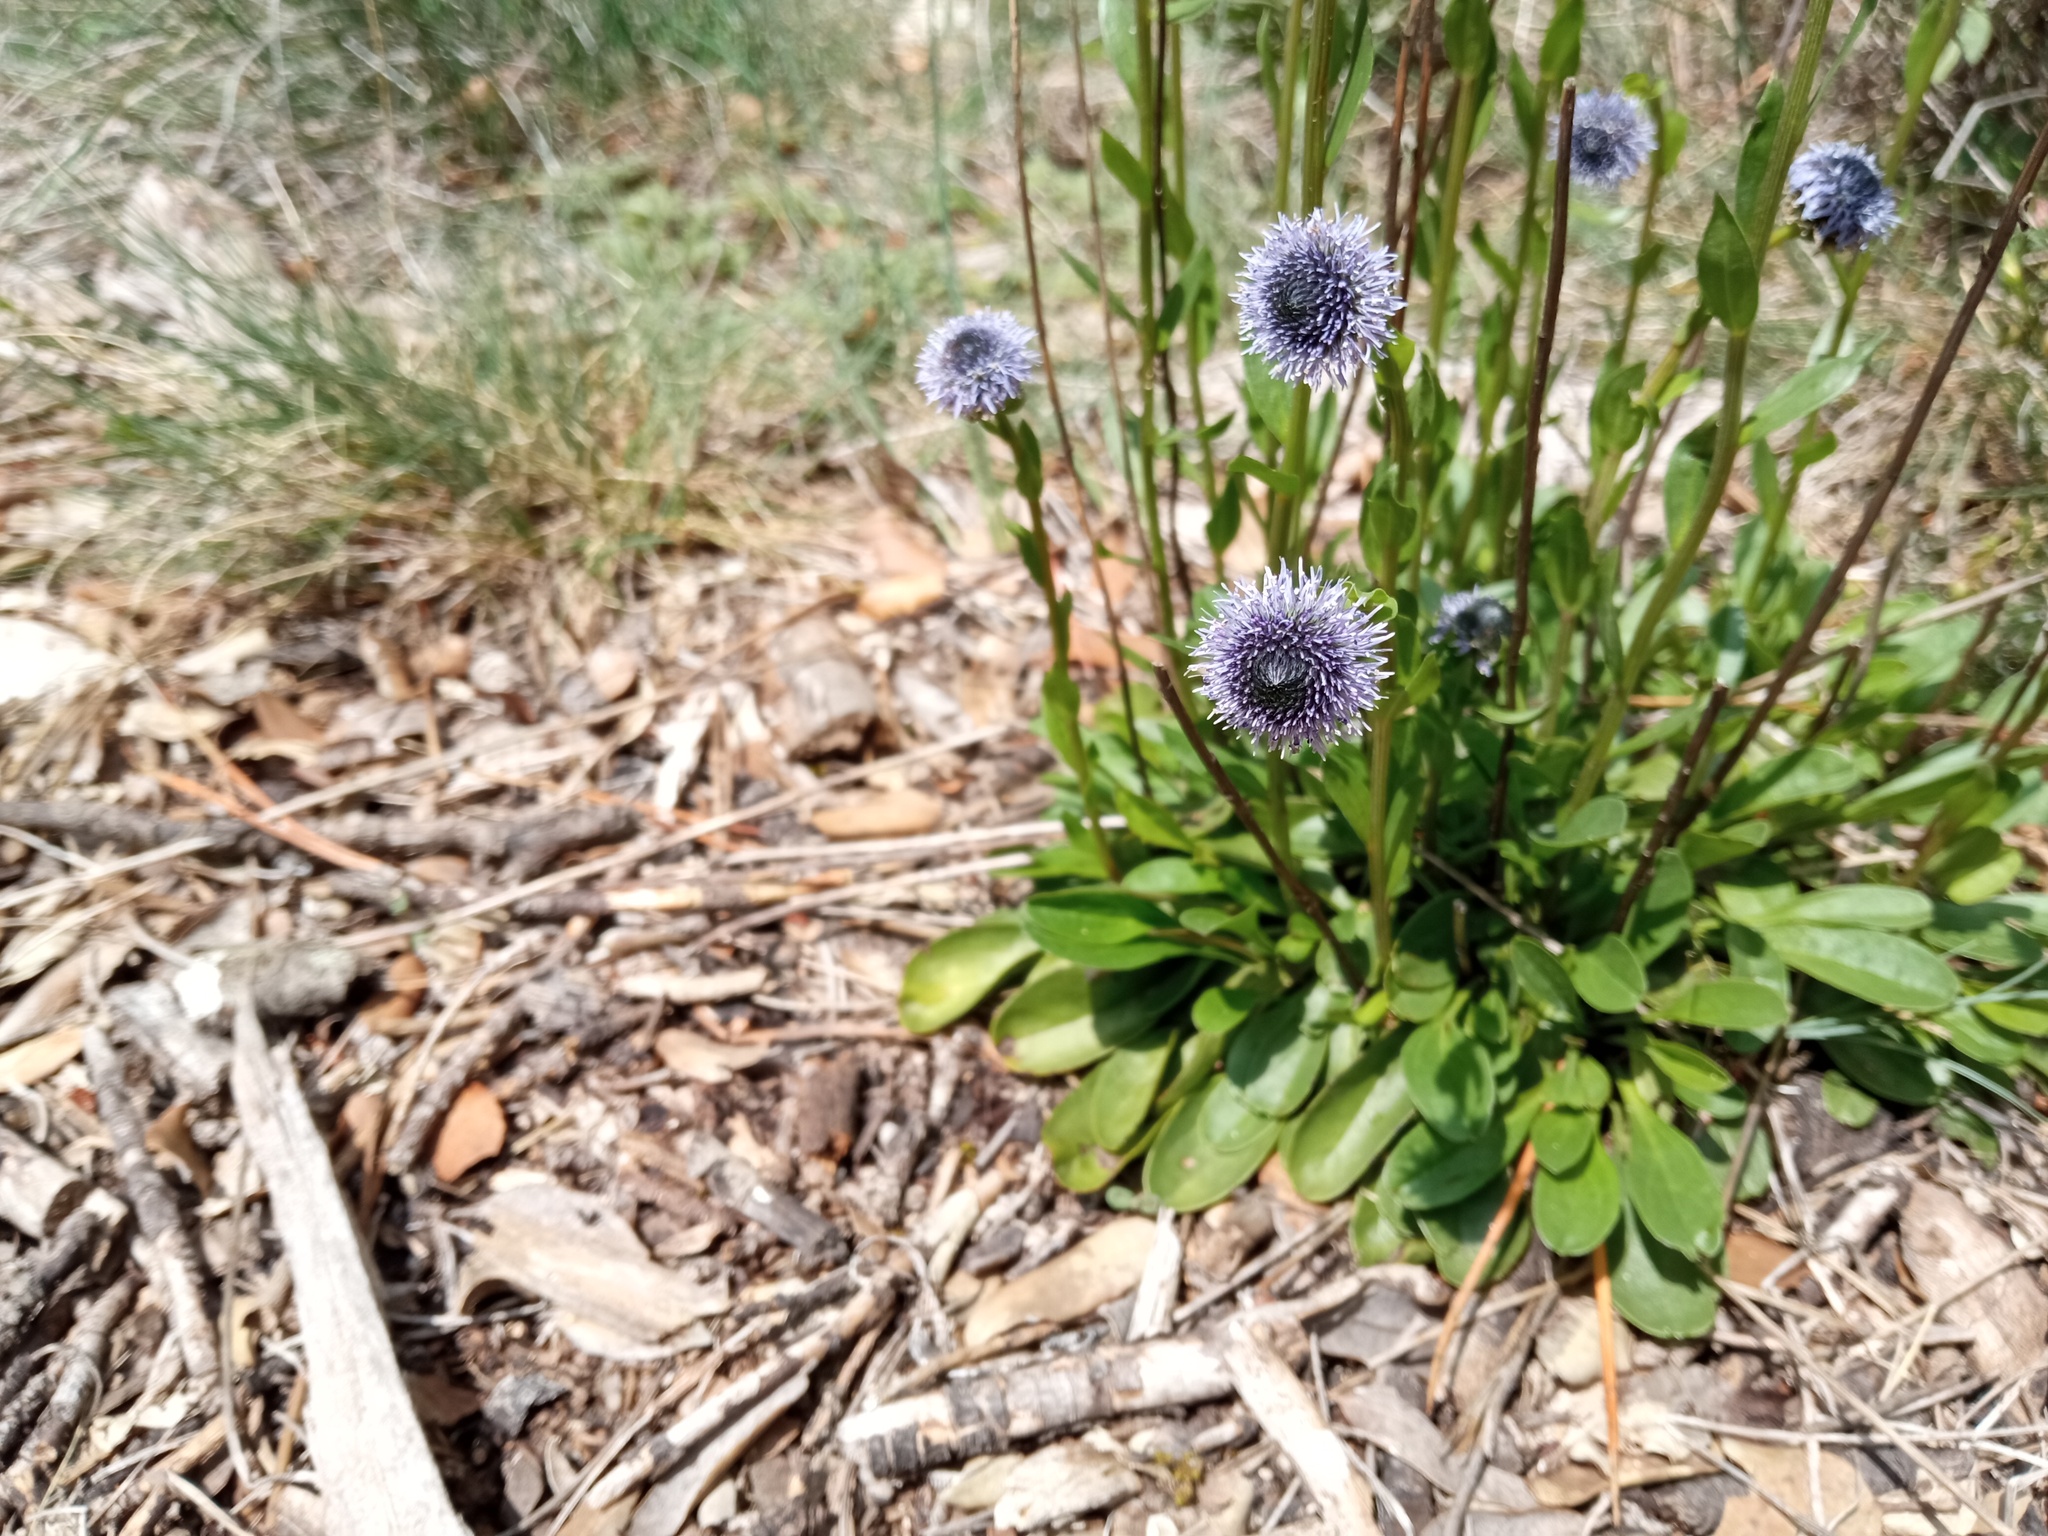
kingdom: Plantae
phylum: Tracheophyta
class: Magnoliopsida
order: Lamiales
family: Plantaginaceae
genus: Globularia
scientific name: Globularia bisnagarica
